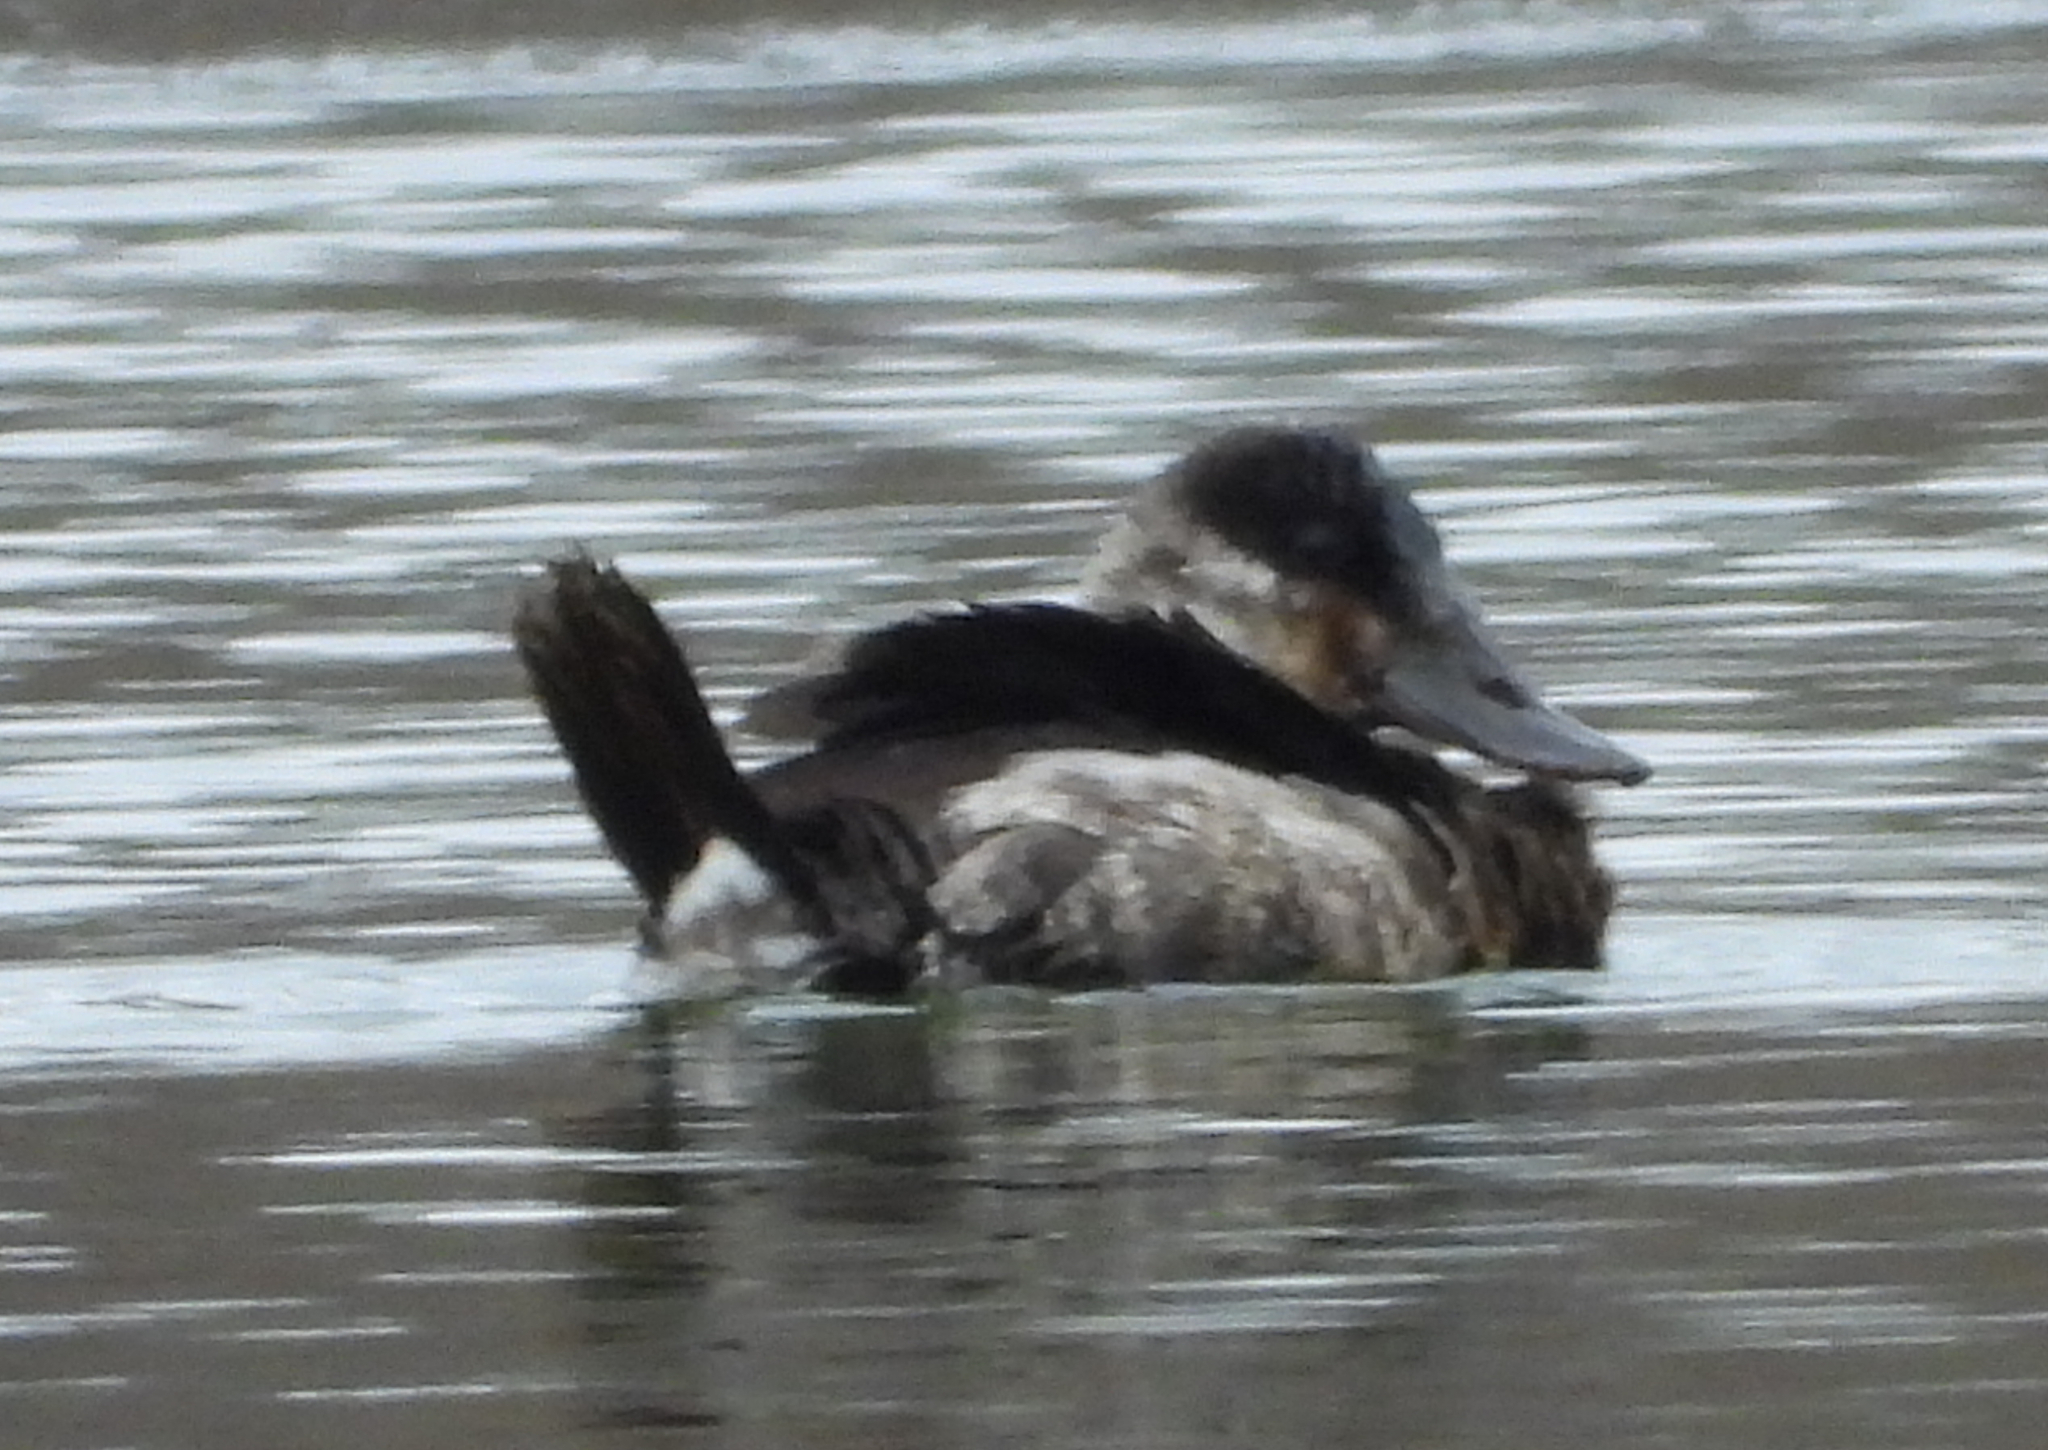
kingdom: Animalia
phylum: Chordata
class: Aves
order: Anseriformes
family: Anatidae
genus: Oxyura
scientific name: Oxyura jamaicensis
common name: Ruddy duck
